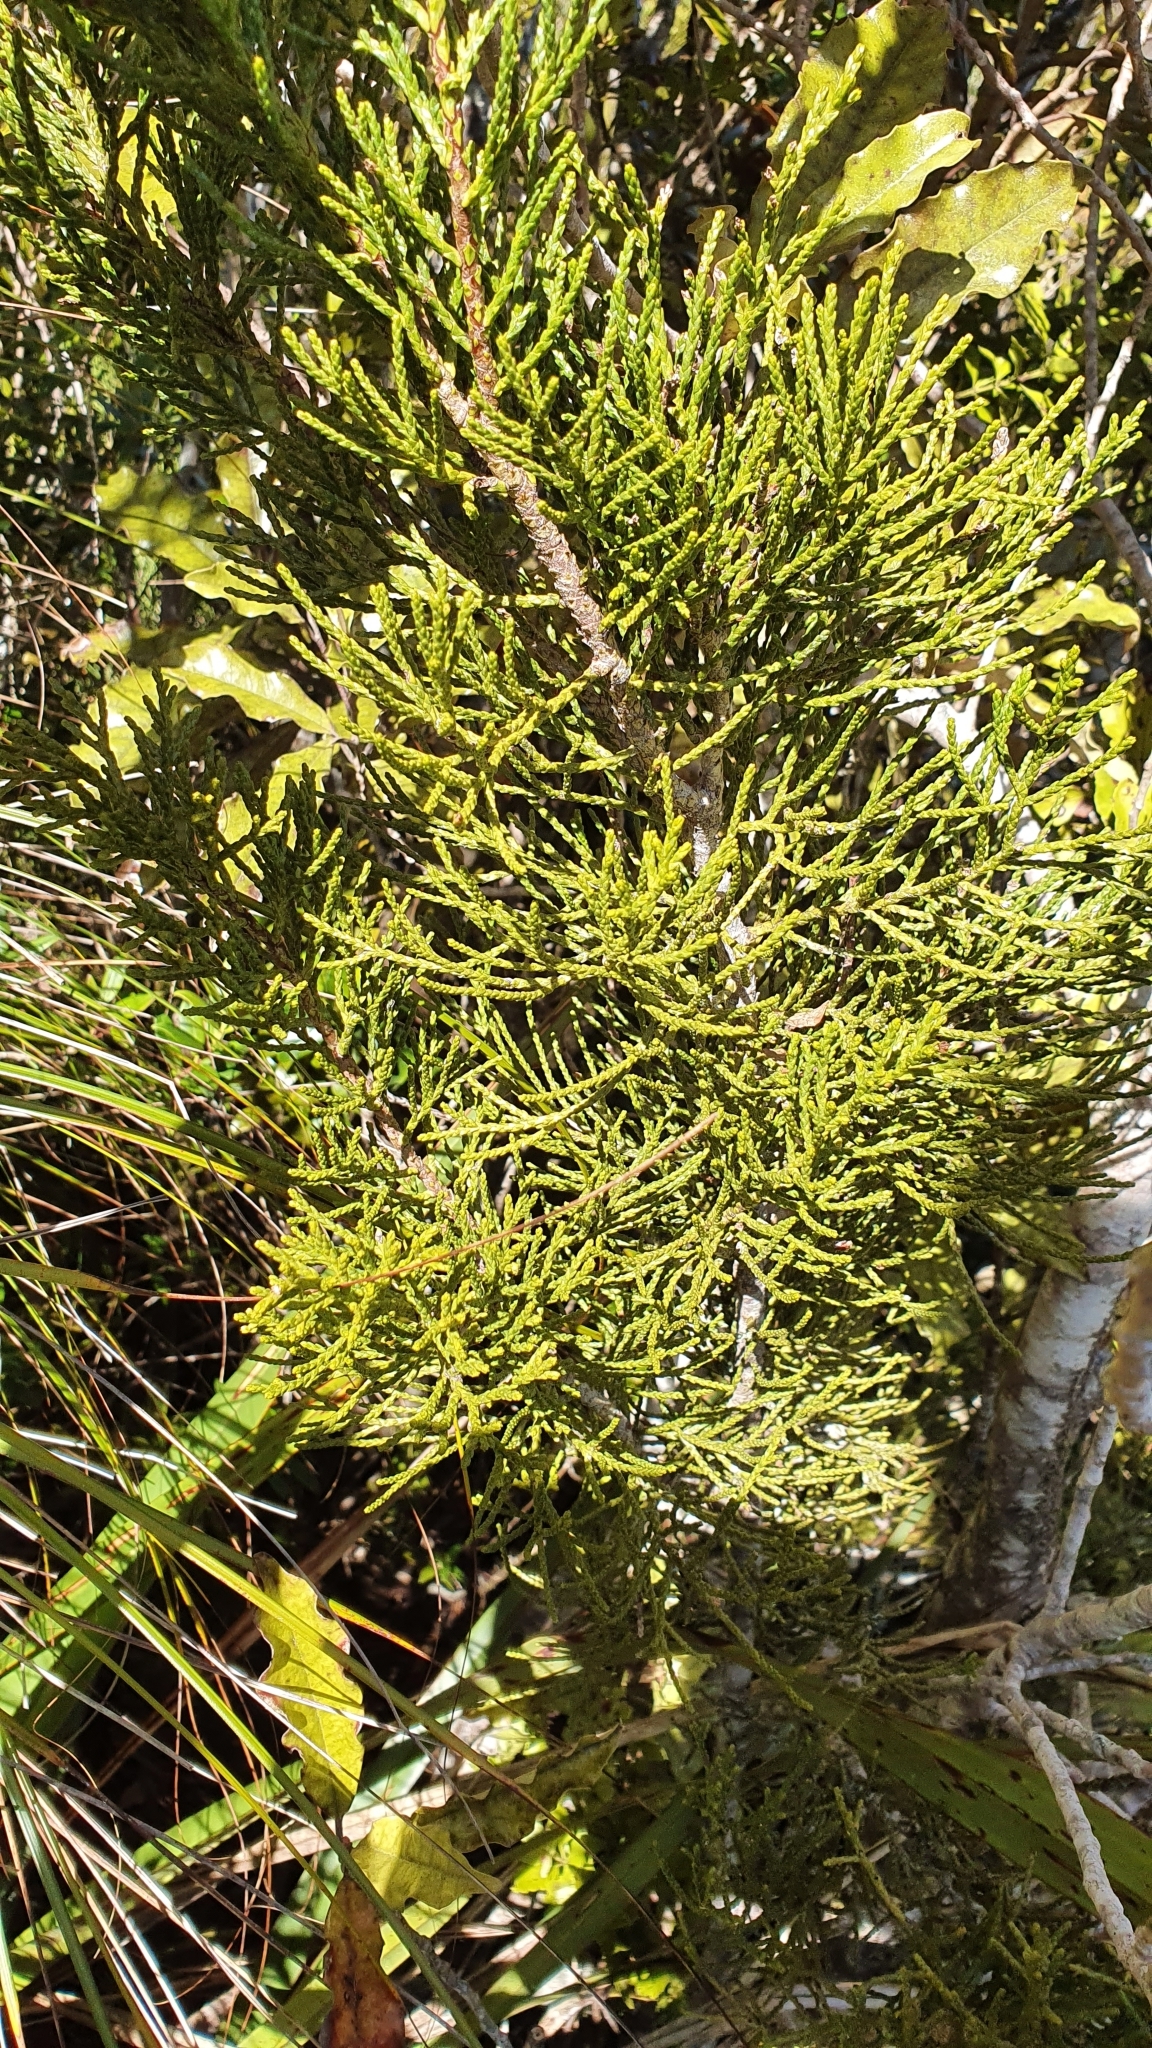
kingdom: Plantae
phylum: Tracheophyta
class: Pinopsida
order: Pinales
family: Podocarpaceae
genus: Halocarpus
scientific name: Halocarpus biformis
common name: Alpine tarwood
